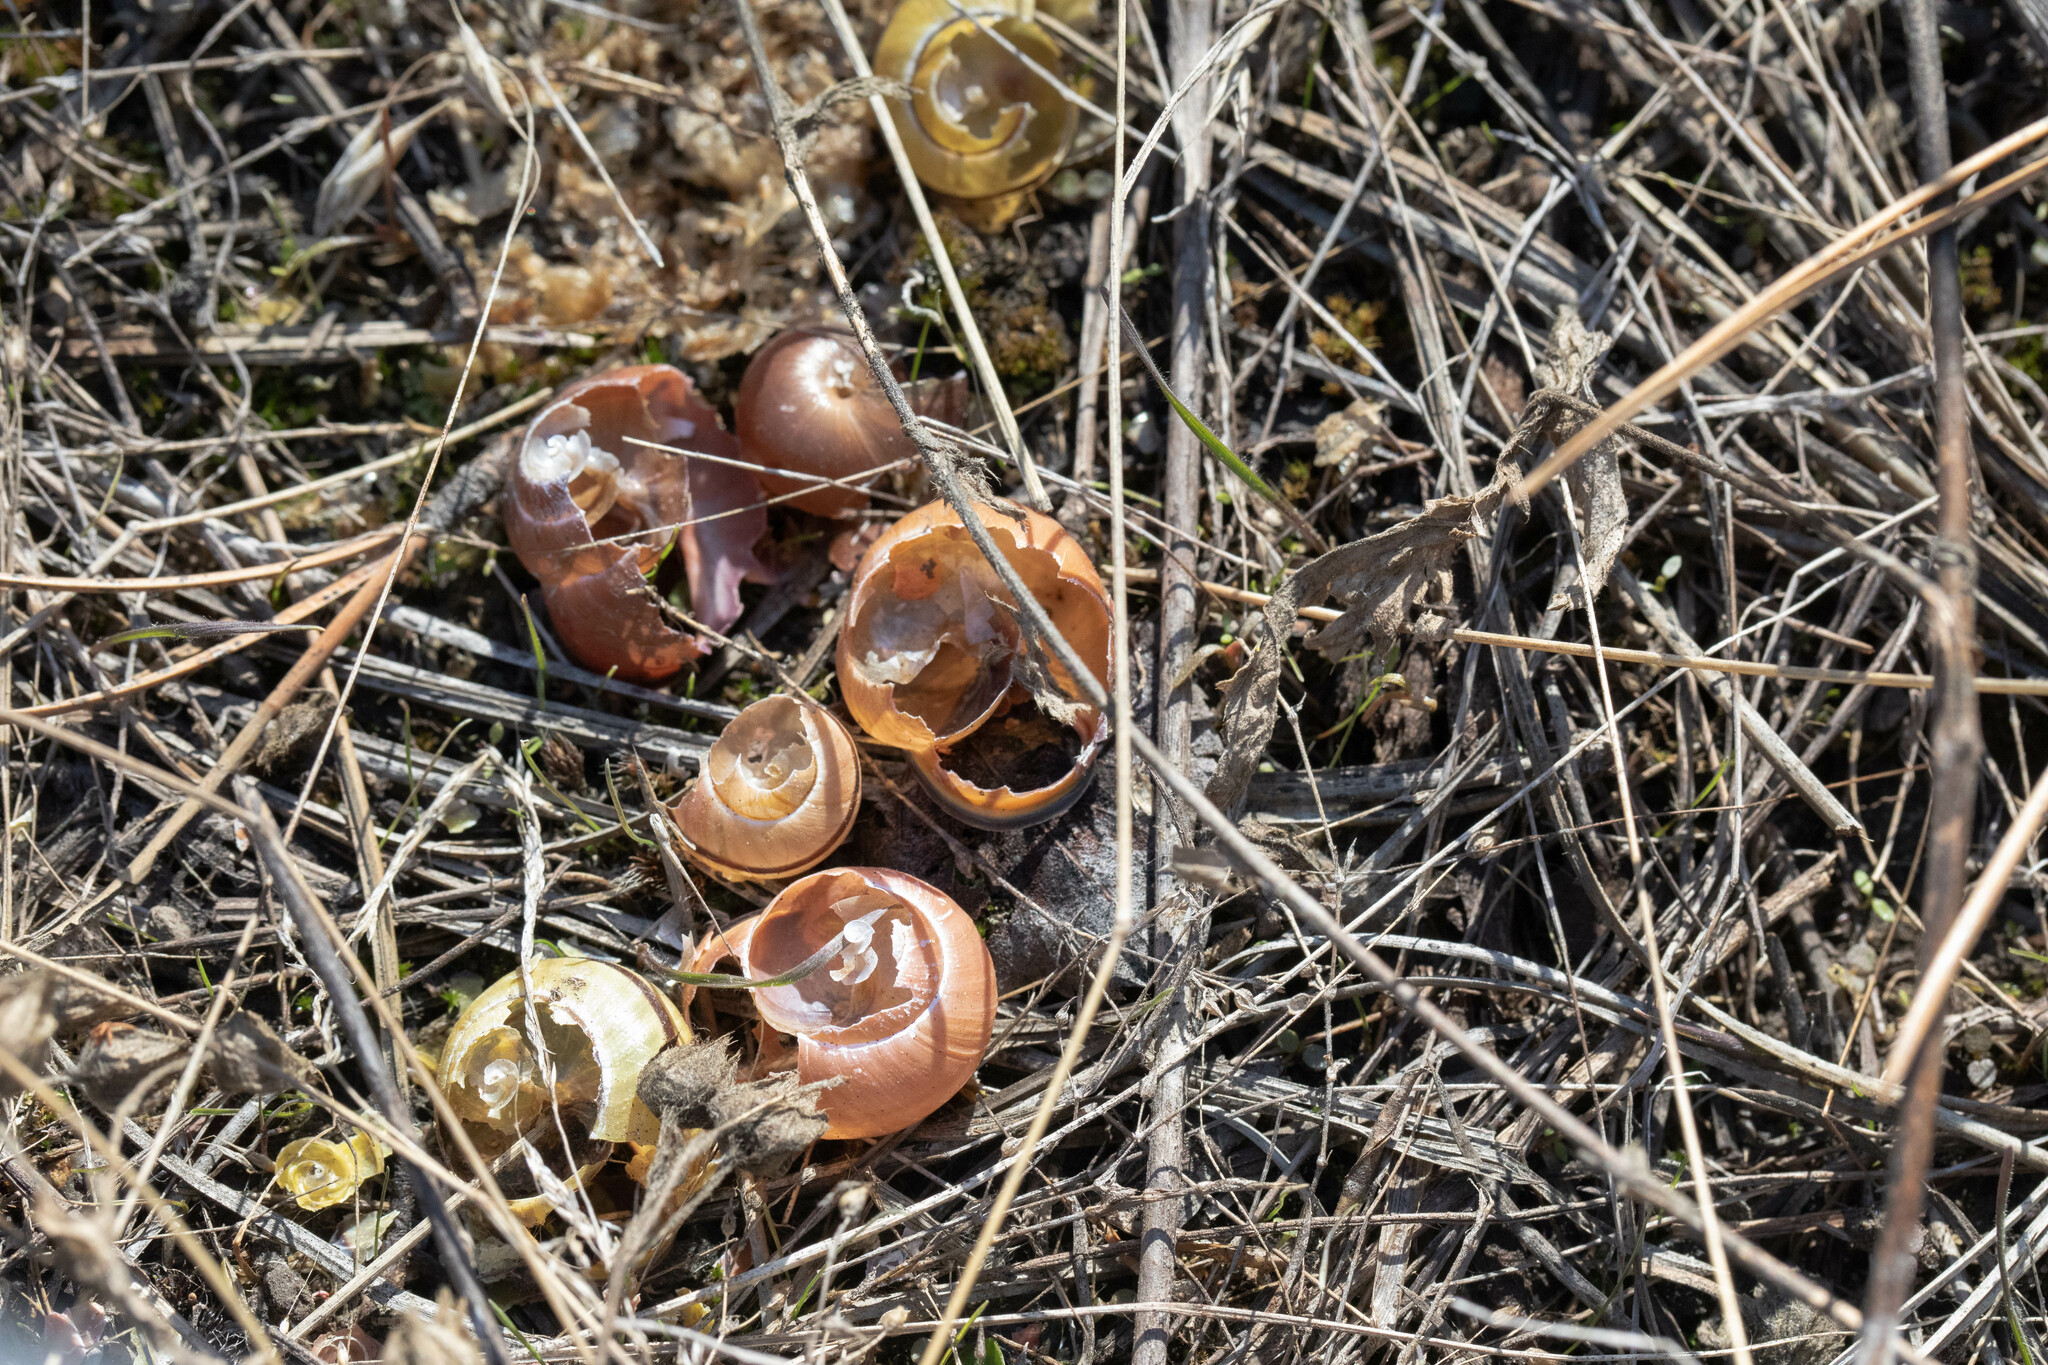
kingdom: Animalia
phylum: Mollusca
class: Gastropoda
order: Stylommatophora
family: Helicidae
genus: Cepaea
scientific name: Cepaea nemoralis
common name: Grovesnail
